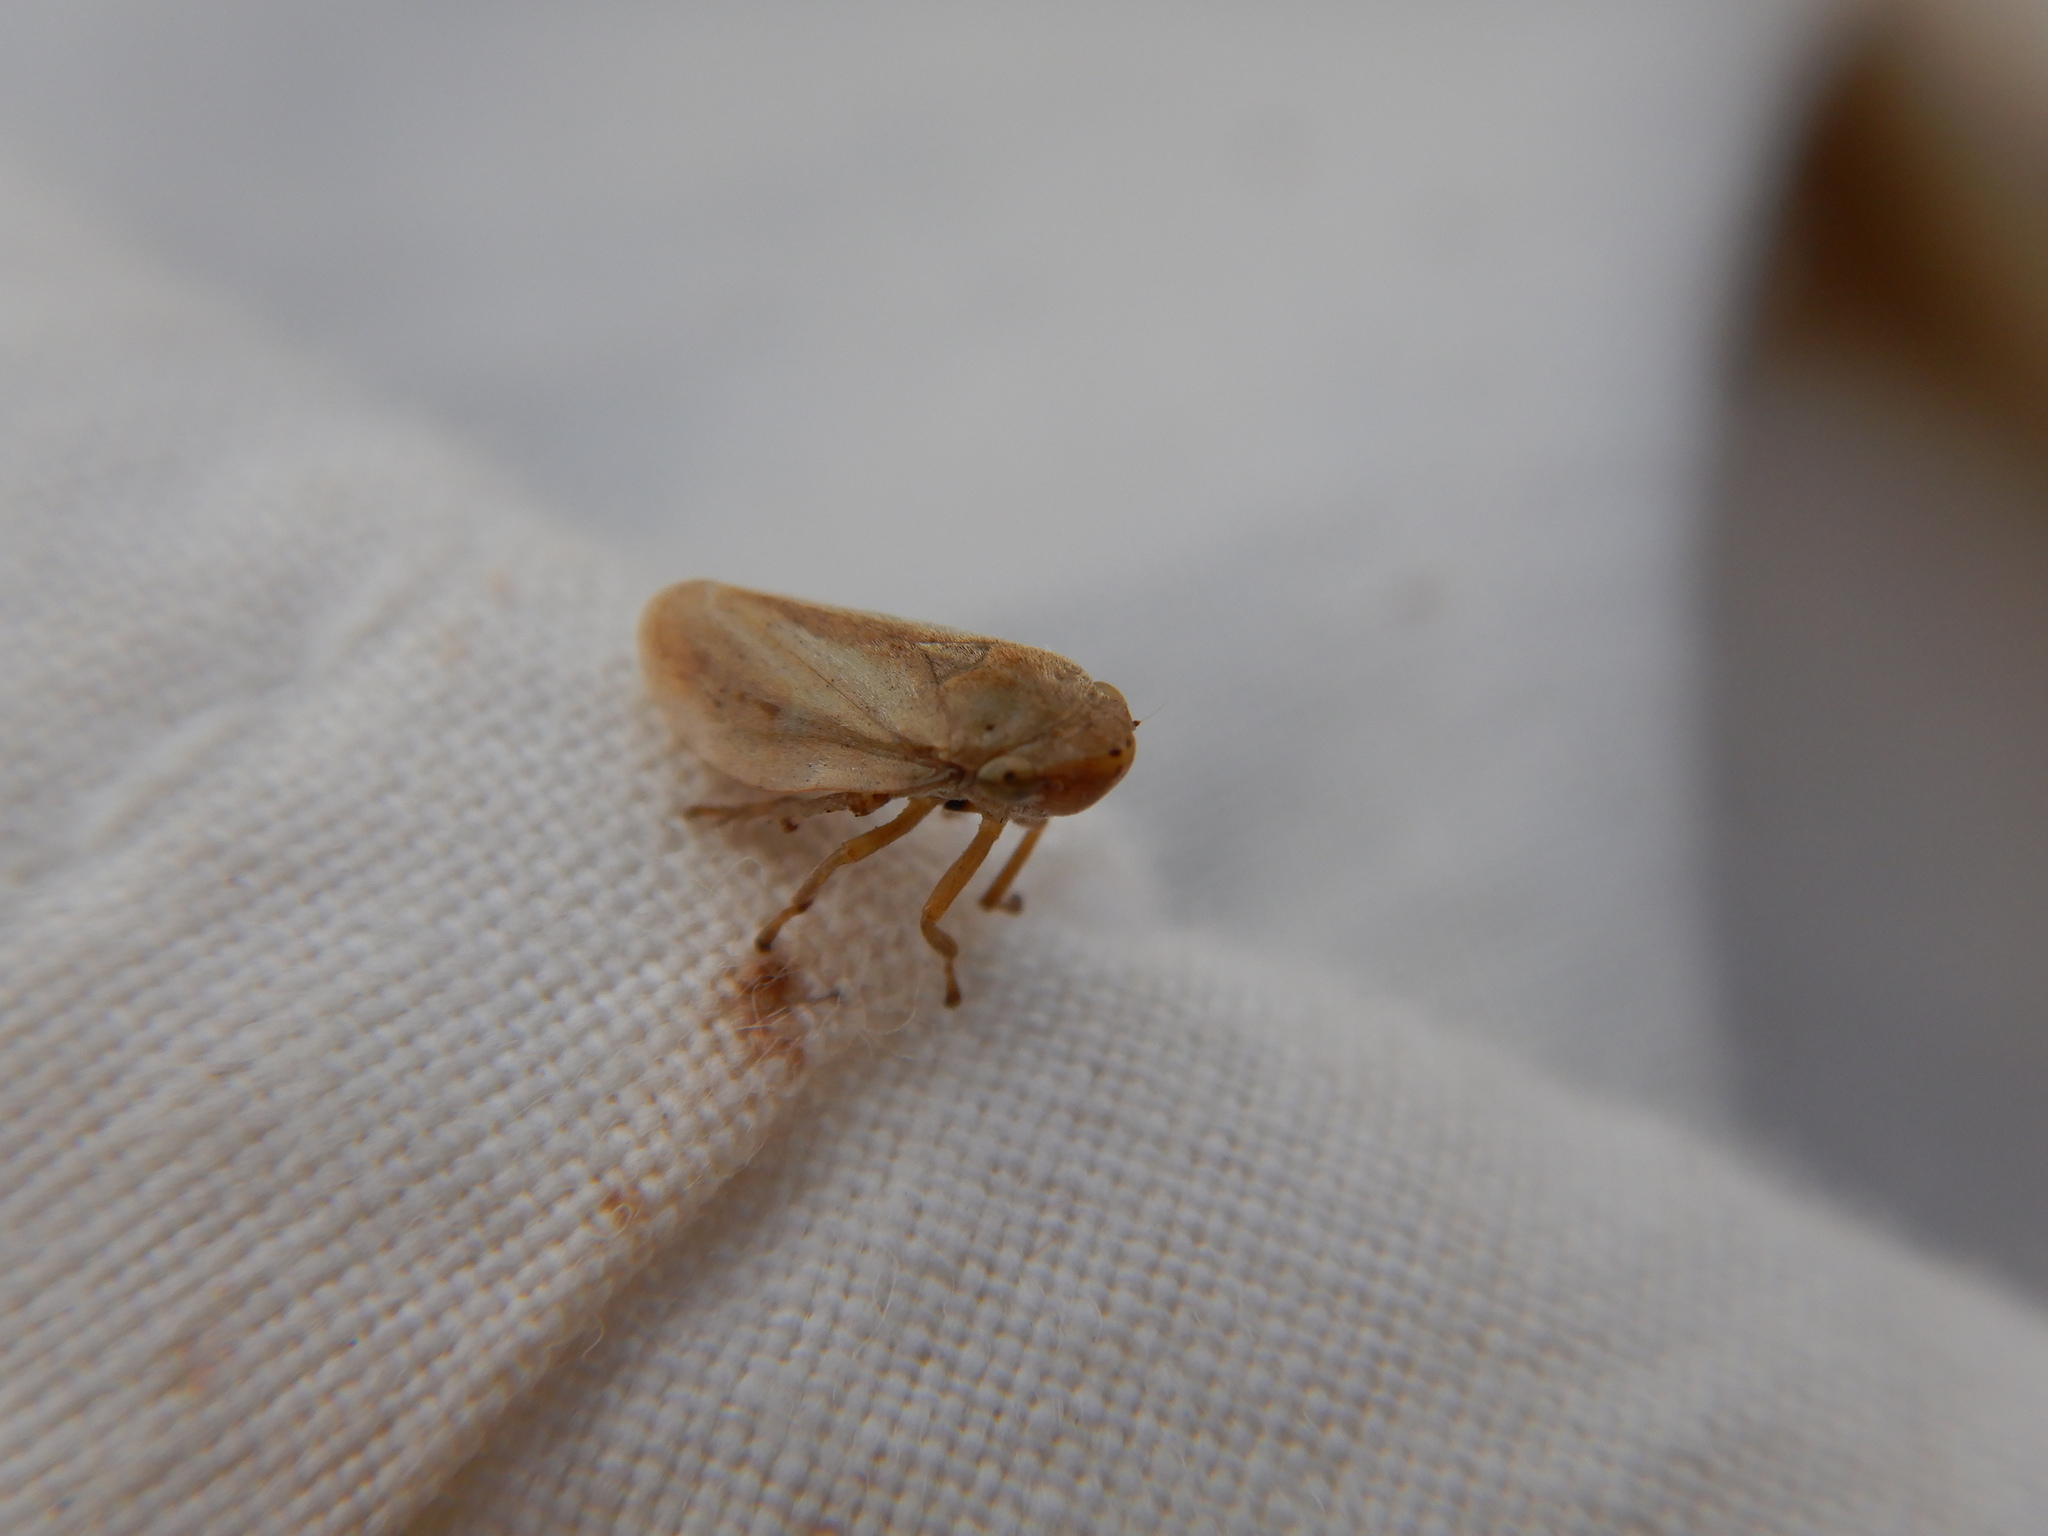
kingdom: Animalia
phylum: Arthropoda
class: Insecta
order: Hemiptera
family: Aphrophoridae
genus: Philaenus
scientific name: Philaenus spumarius
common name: Meadow spittlebug
